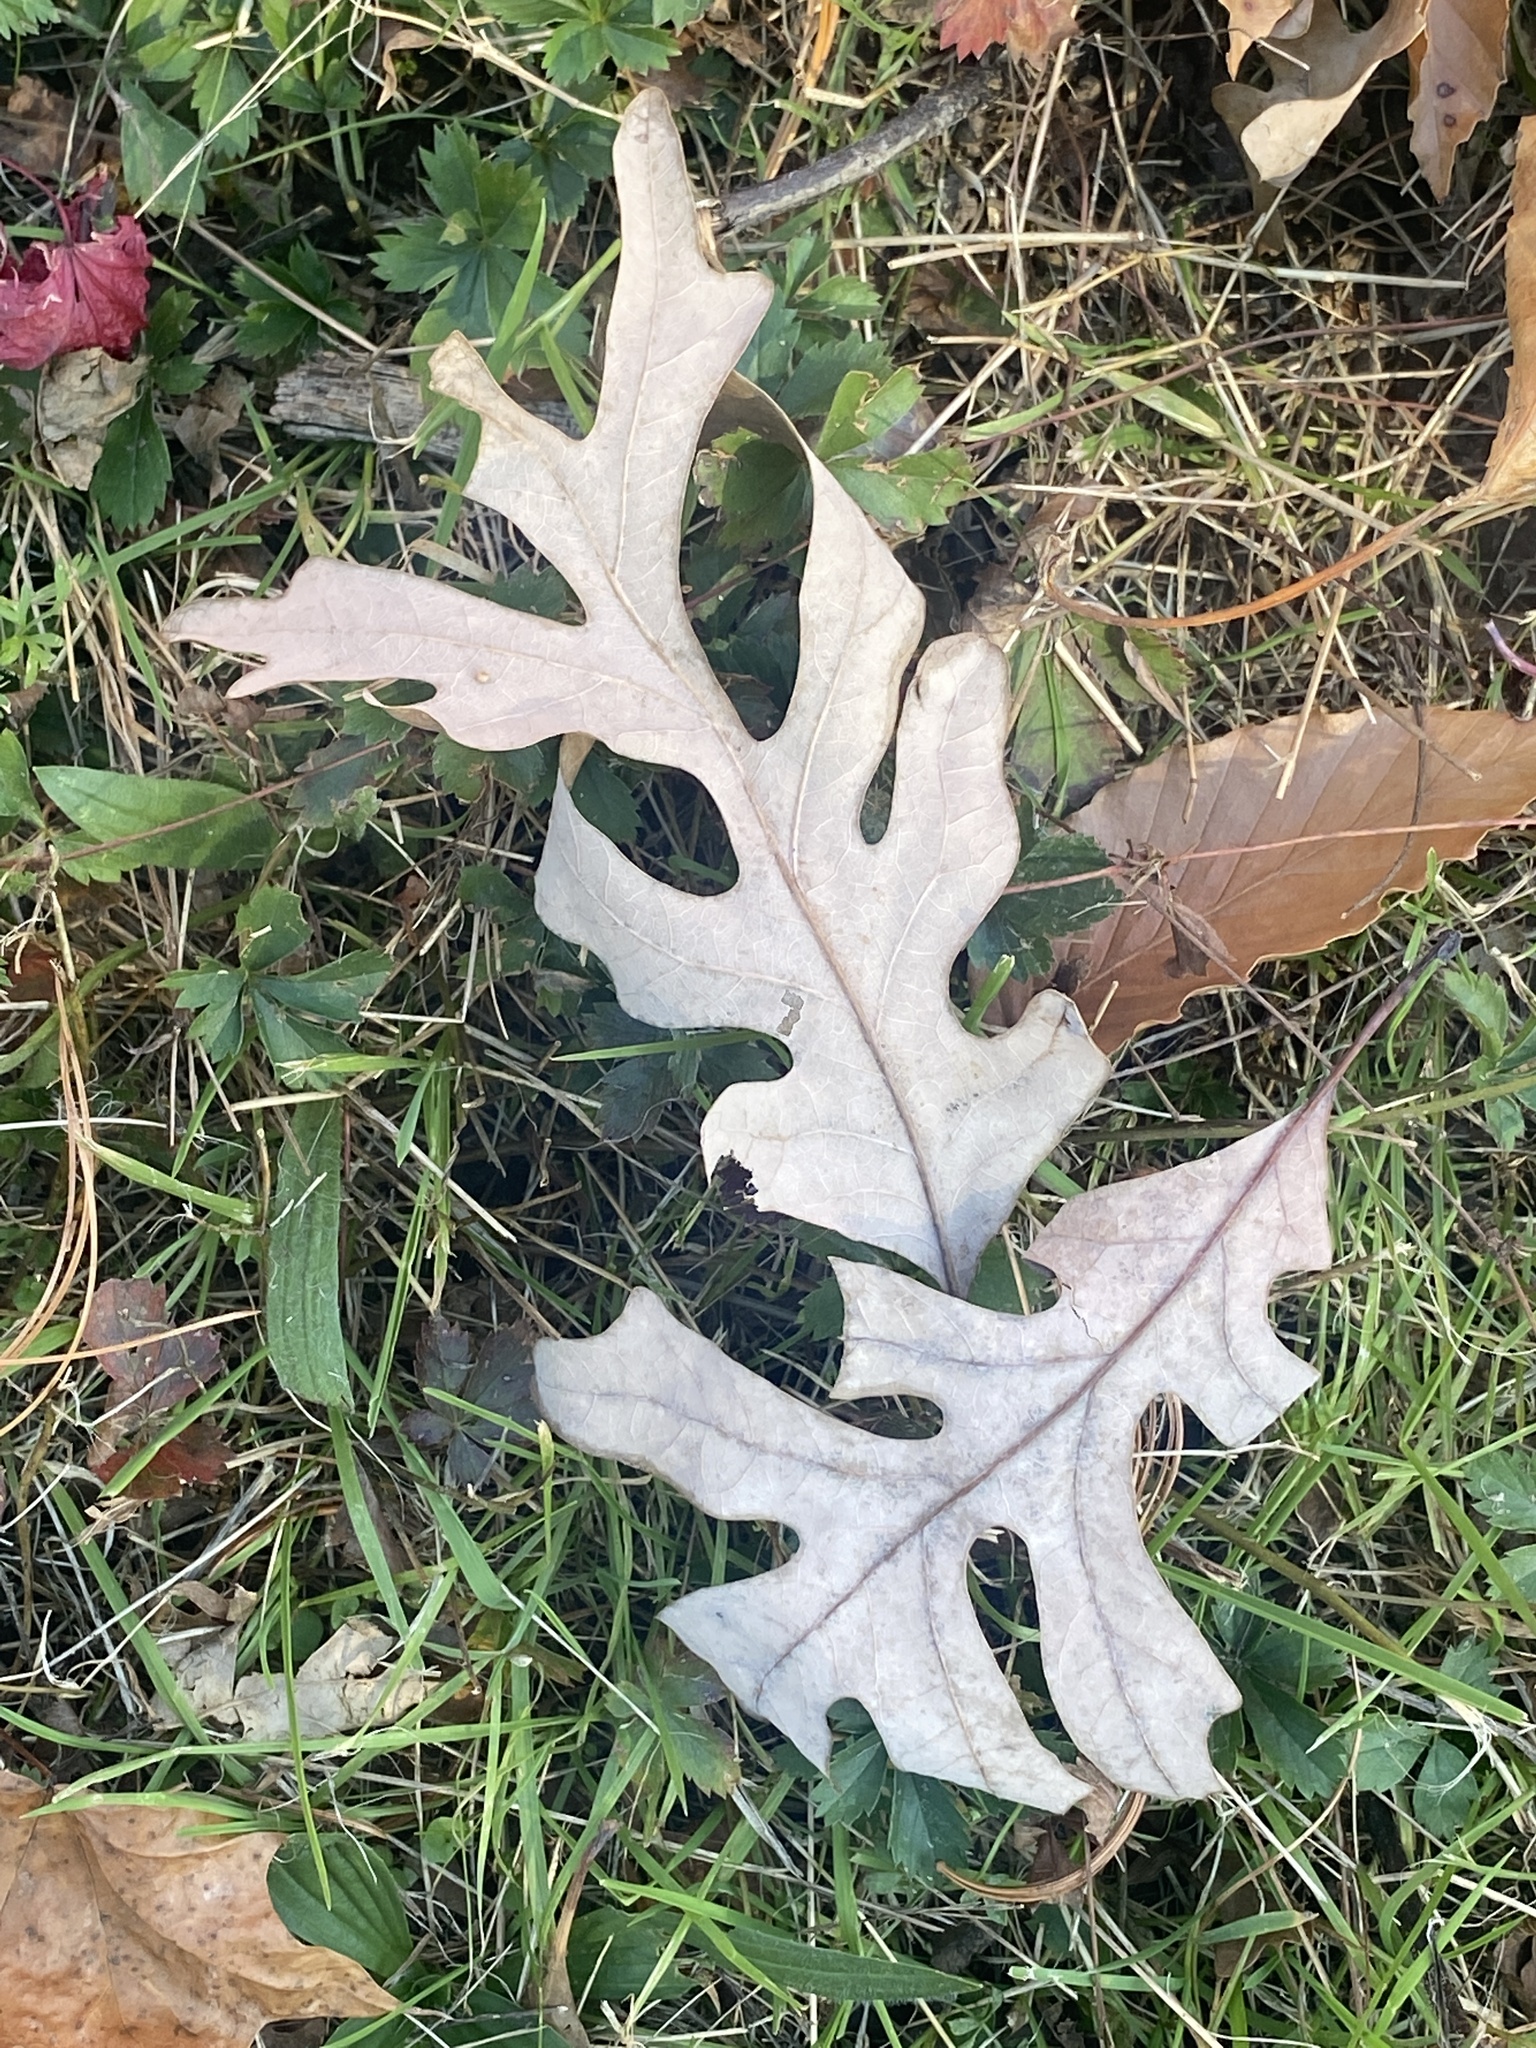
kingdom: Plantae
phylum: Tracheophyta
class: Magnoliopsida
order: Fagales
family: Fagaceae
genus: Quercus
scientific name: Quercus alba
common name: White oak
